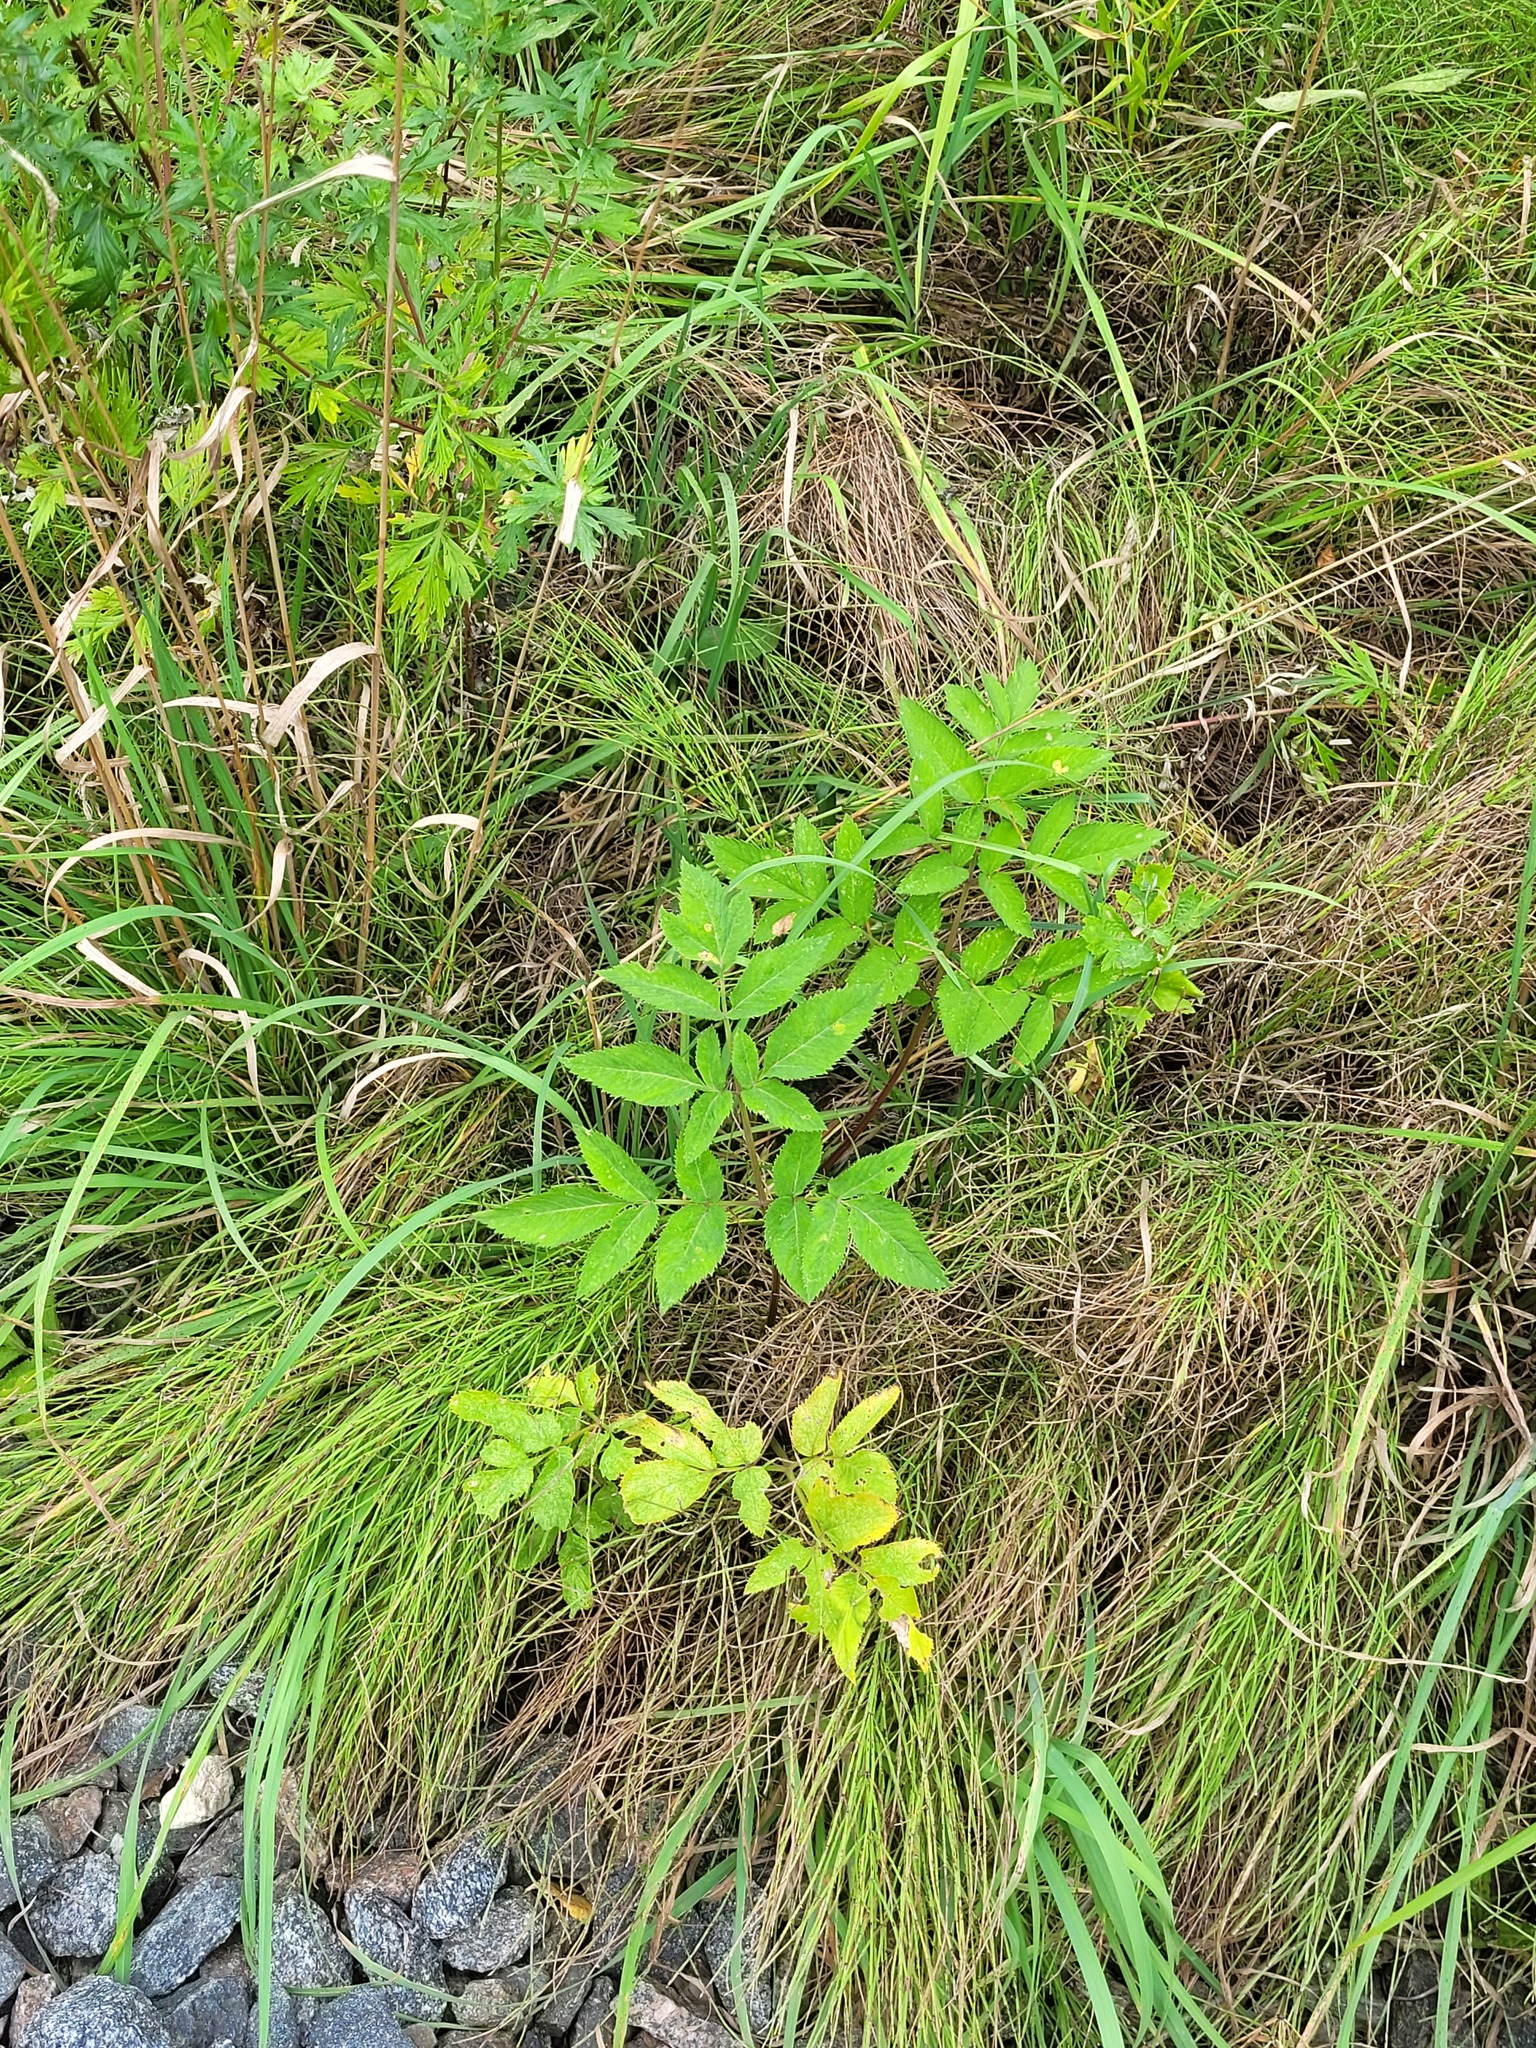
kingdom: Plantae
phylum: Tracheophyta
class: Magnoliopsida
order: Apiales
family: Apiaceae
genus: Angelica
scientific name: Angelica sylvestris
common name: Wild angelica
